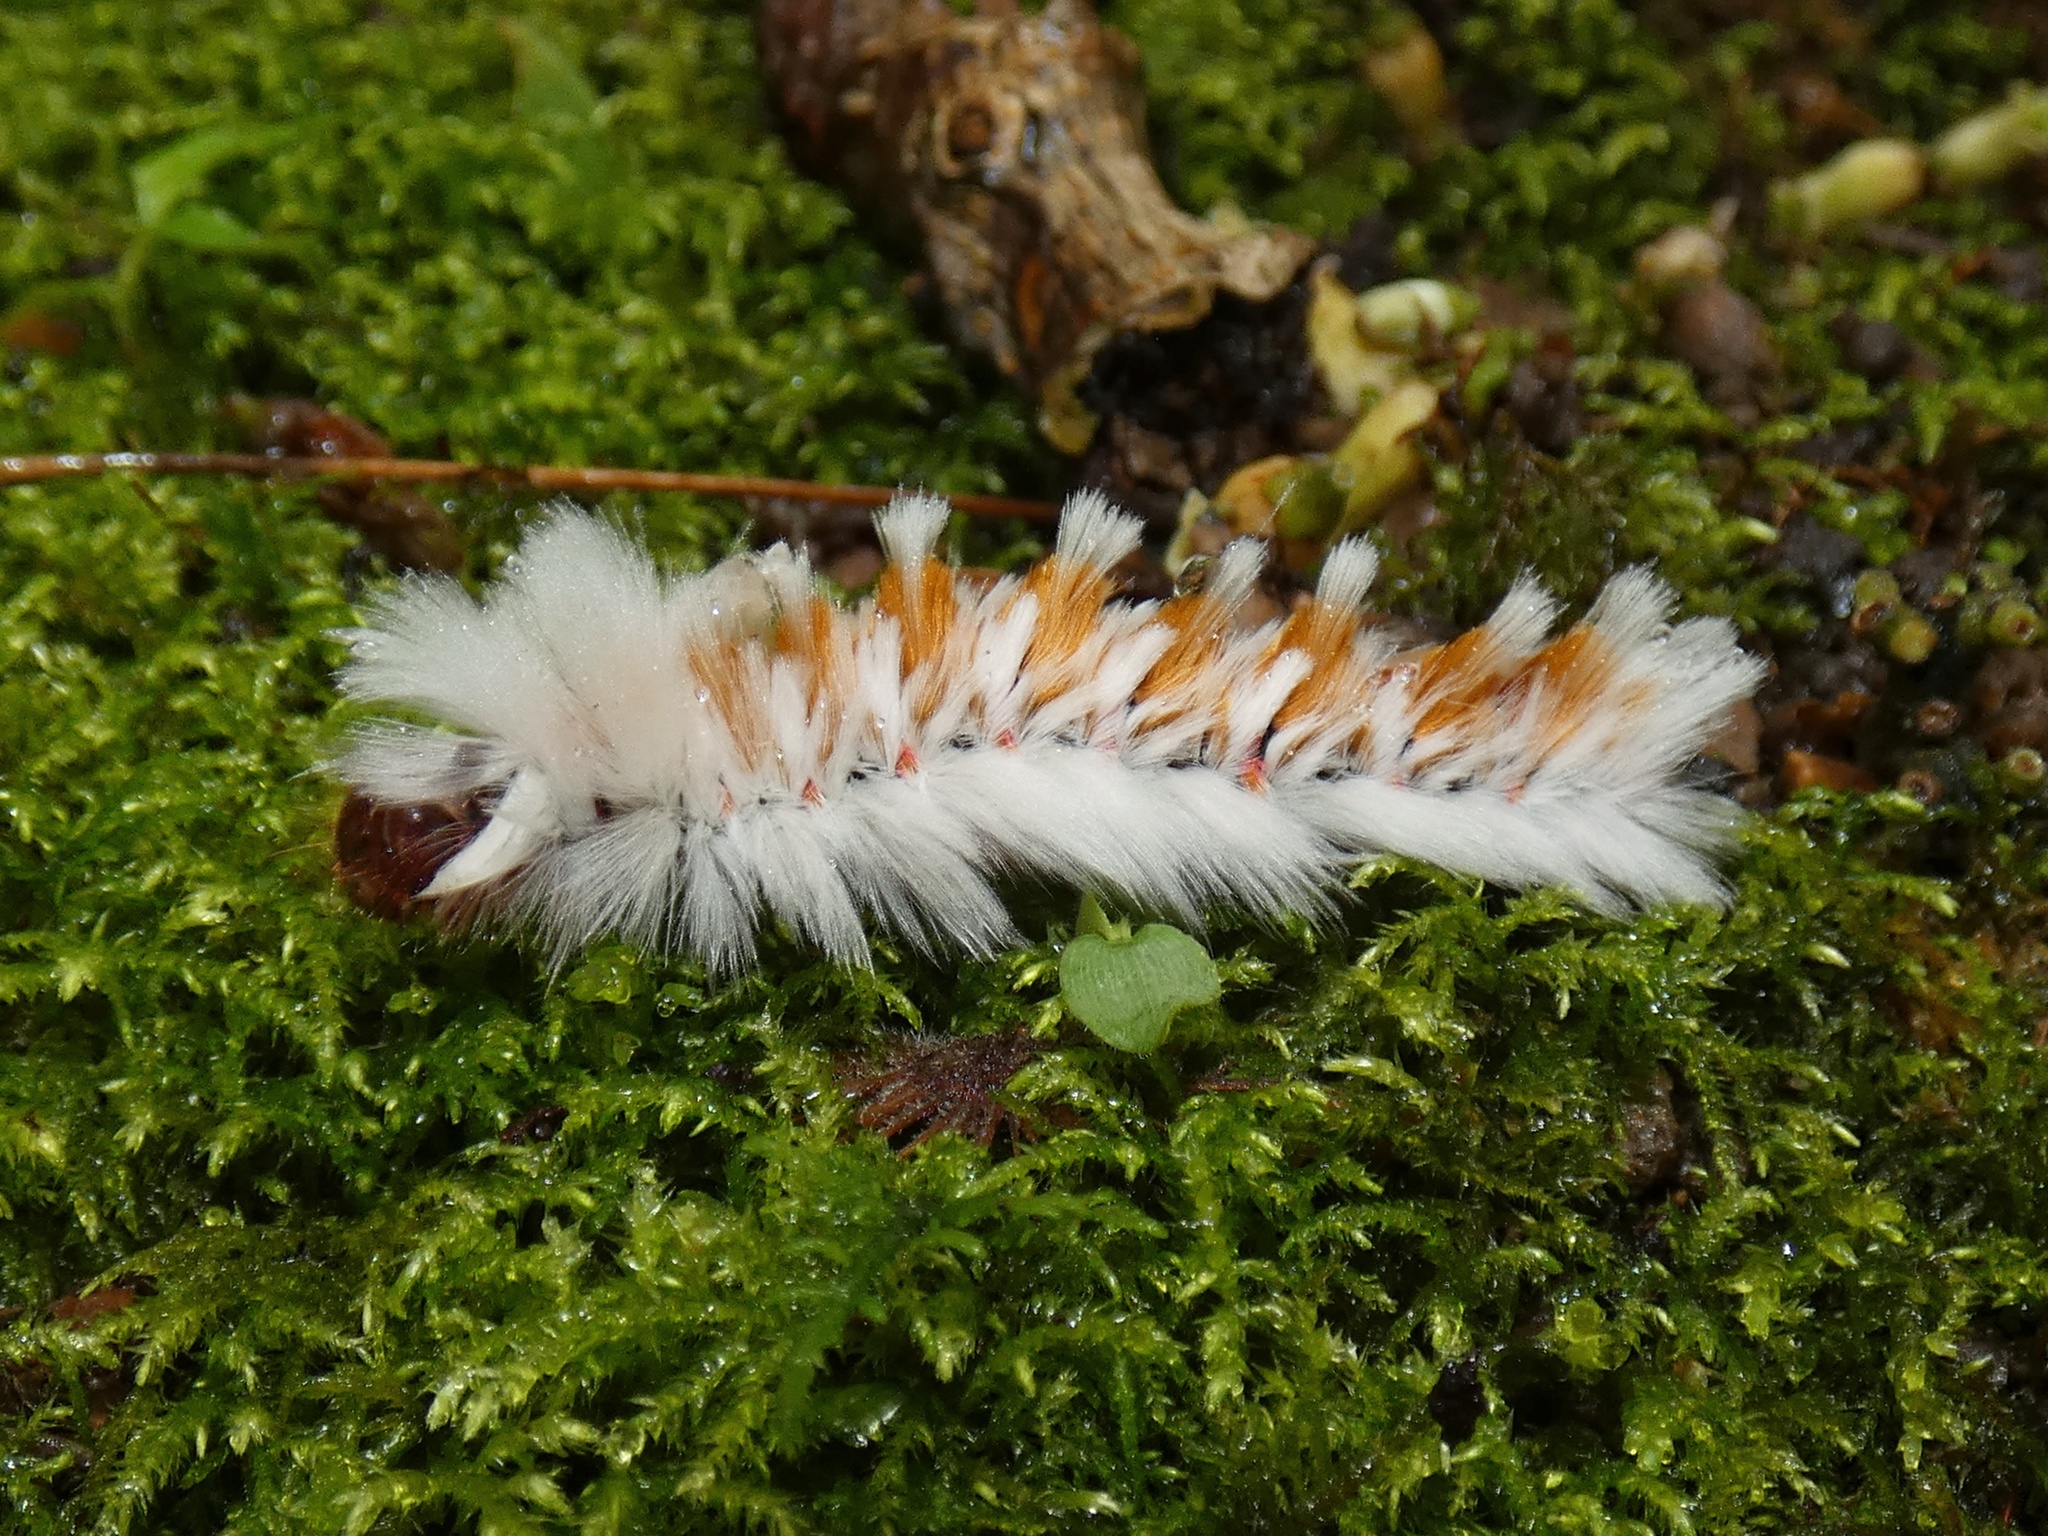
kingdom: Animalia
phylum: Arthropoda
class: Insecta
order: Lepidoptera
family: Eupterotidae
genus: Neopreptos
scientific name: Neopreptos marathusa
